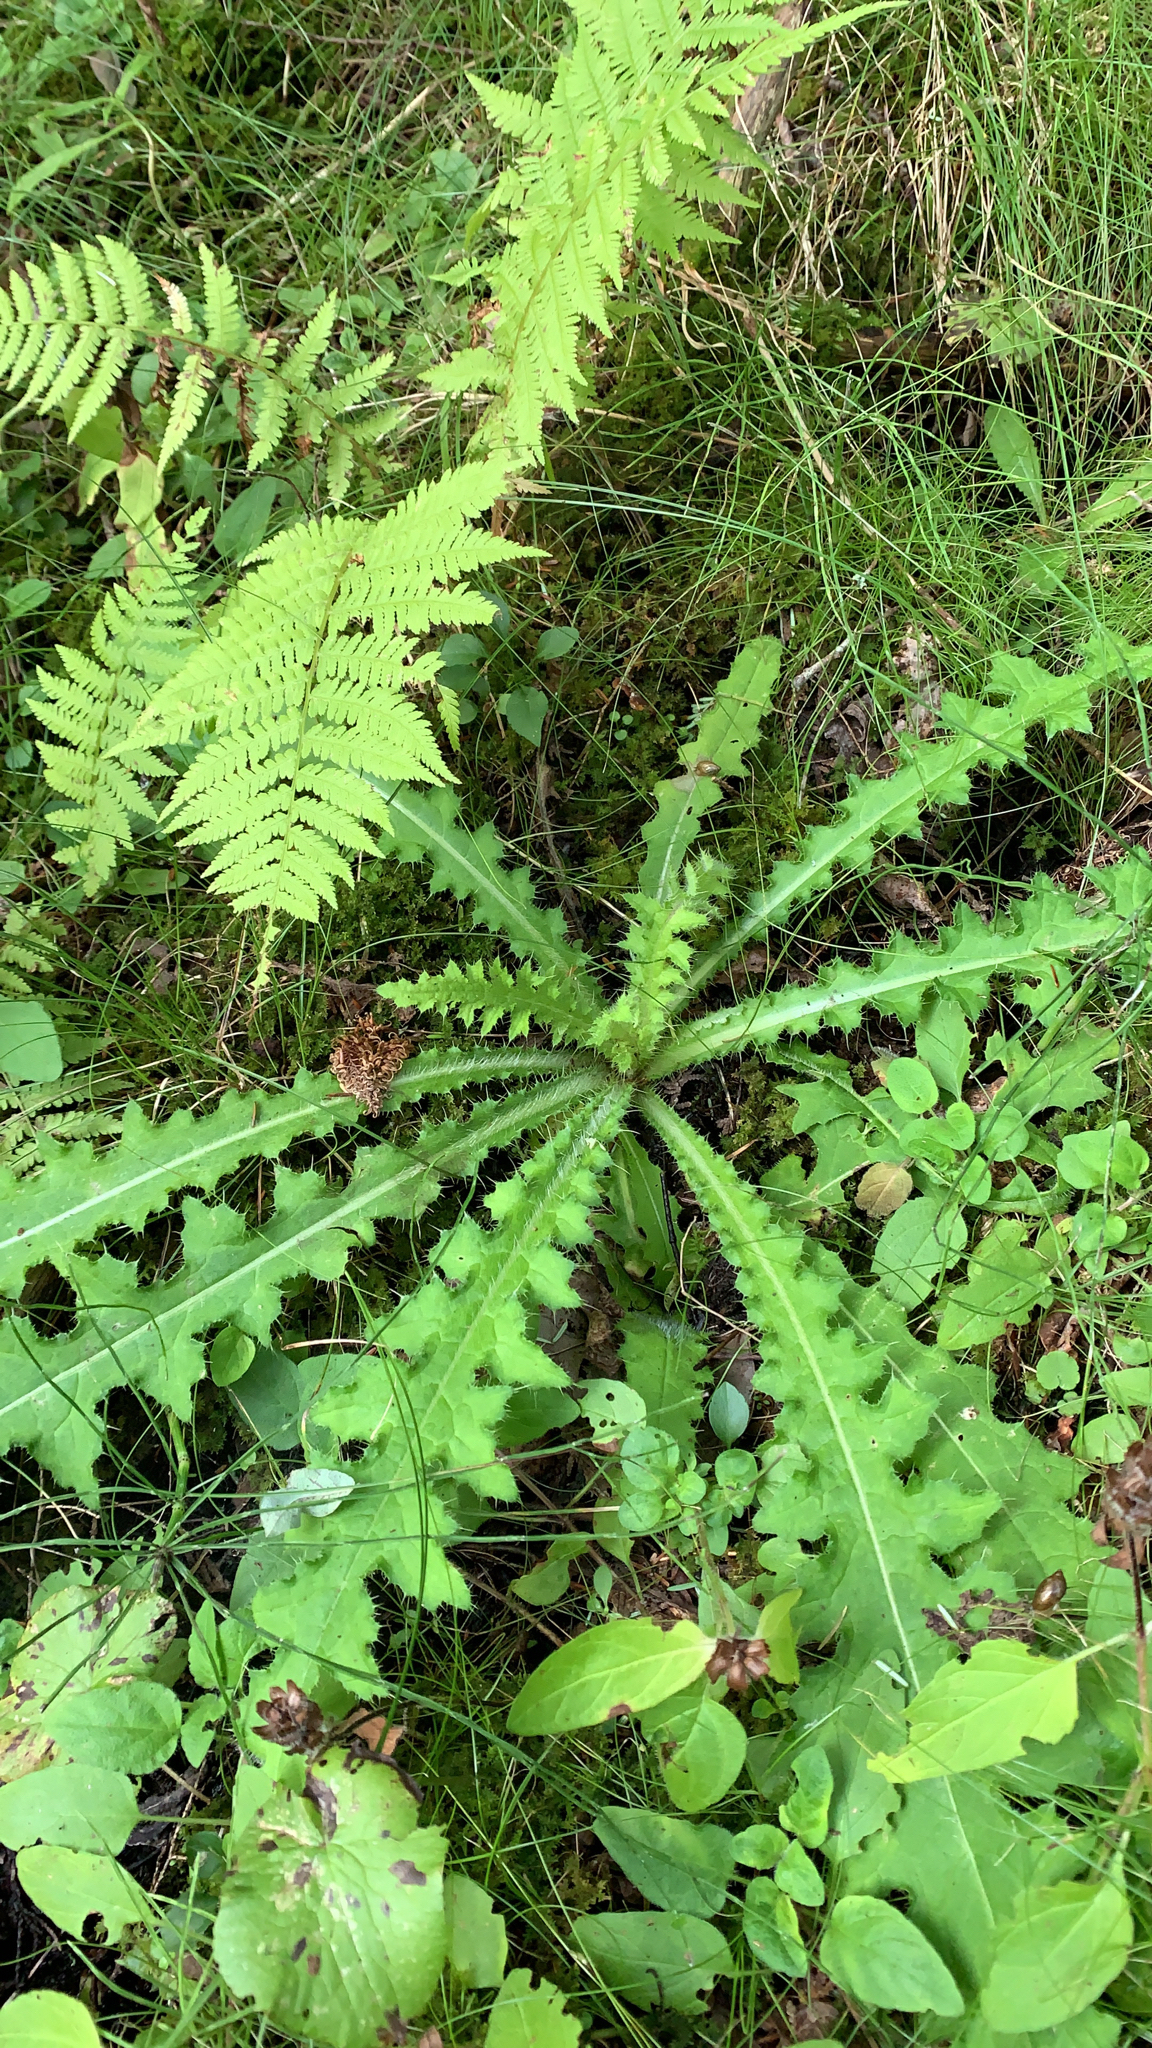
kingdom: Plantae
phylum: Tracheophyta
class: Magnoliopsida
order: Asterales
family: Asteraceae
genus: Cirsium
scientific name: Cirsium palustre
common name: Marsh thistle
